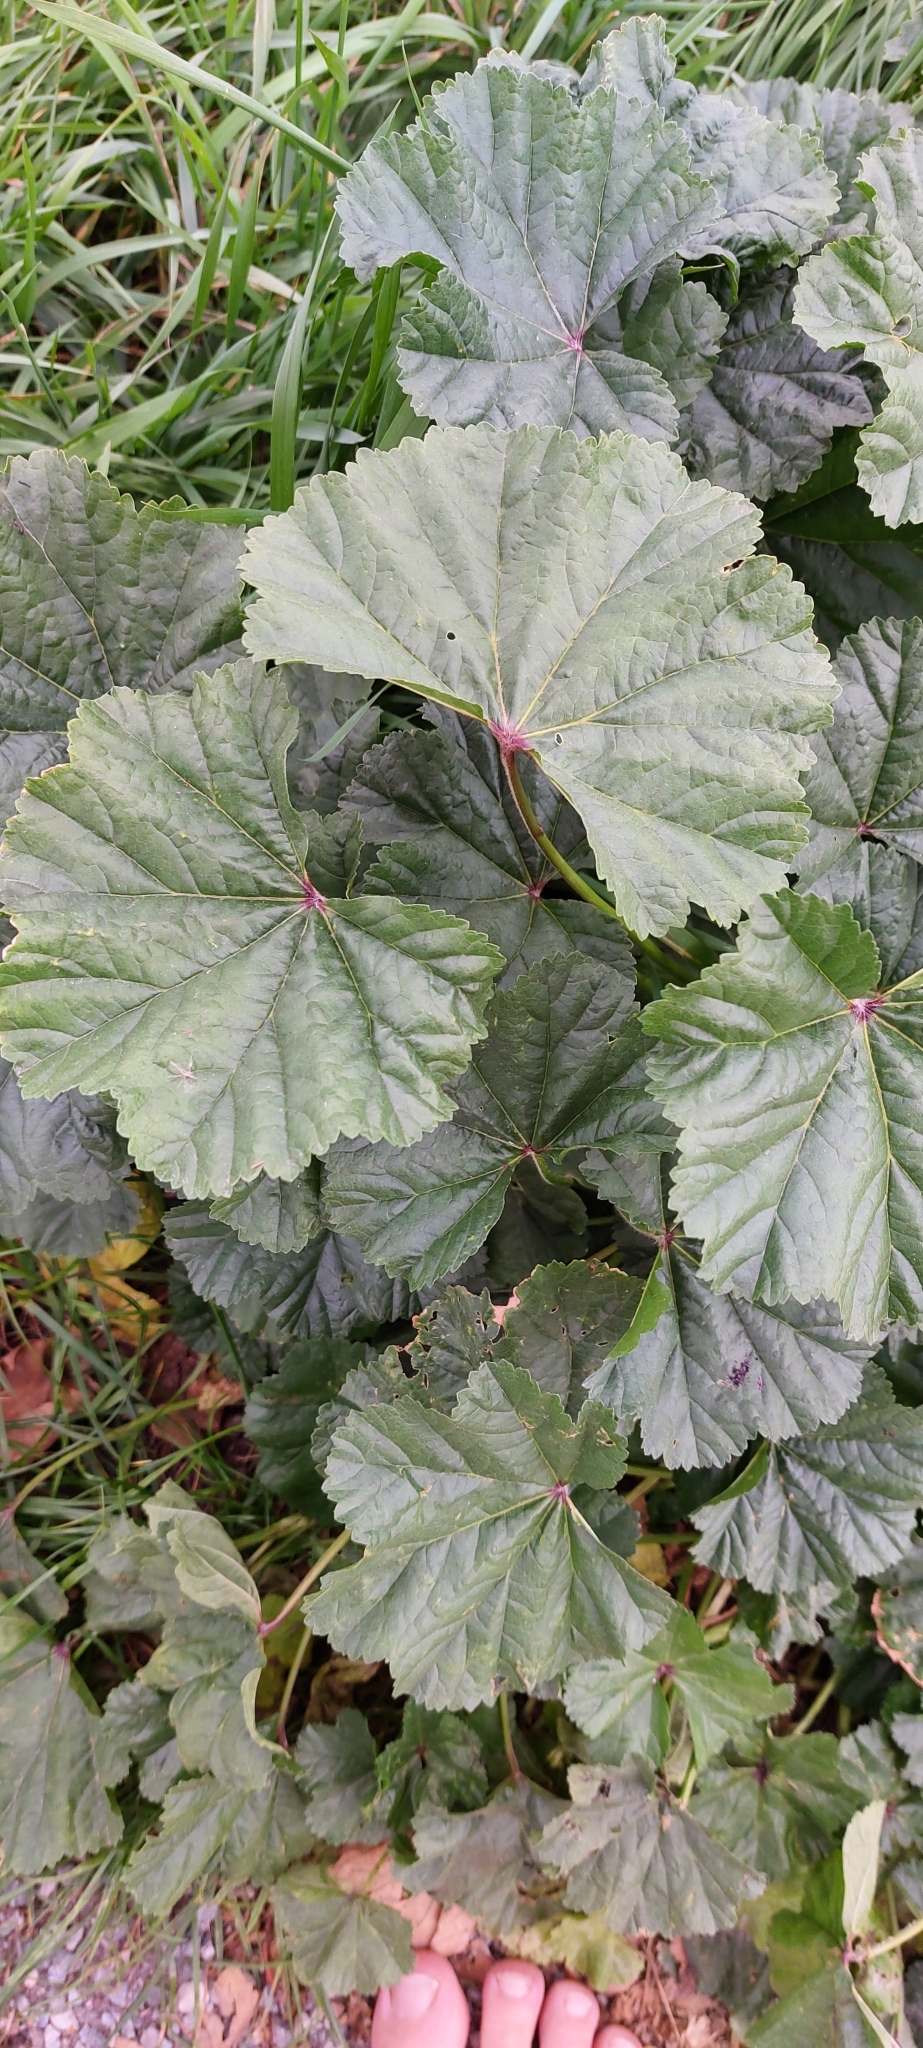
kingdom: Plantae
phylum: Tracheophyta
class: Magnoliopsida
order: Malvales
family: Malvaceae
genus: Malva
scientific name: Malva sylvestris
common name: Common mallow
